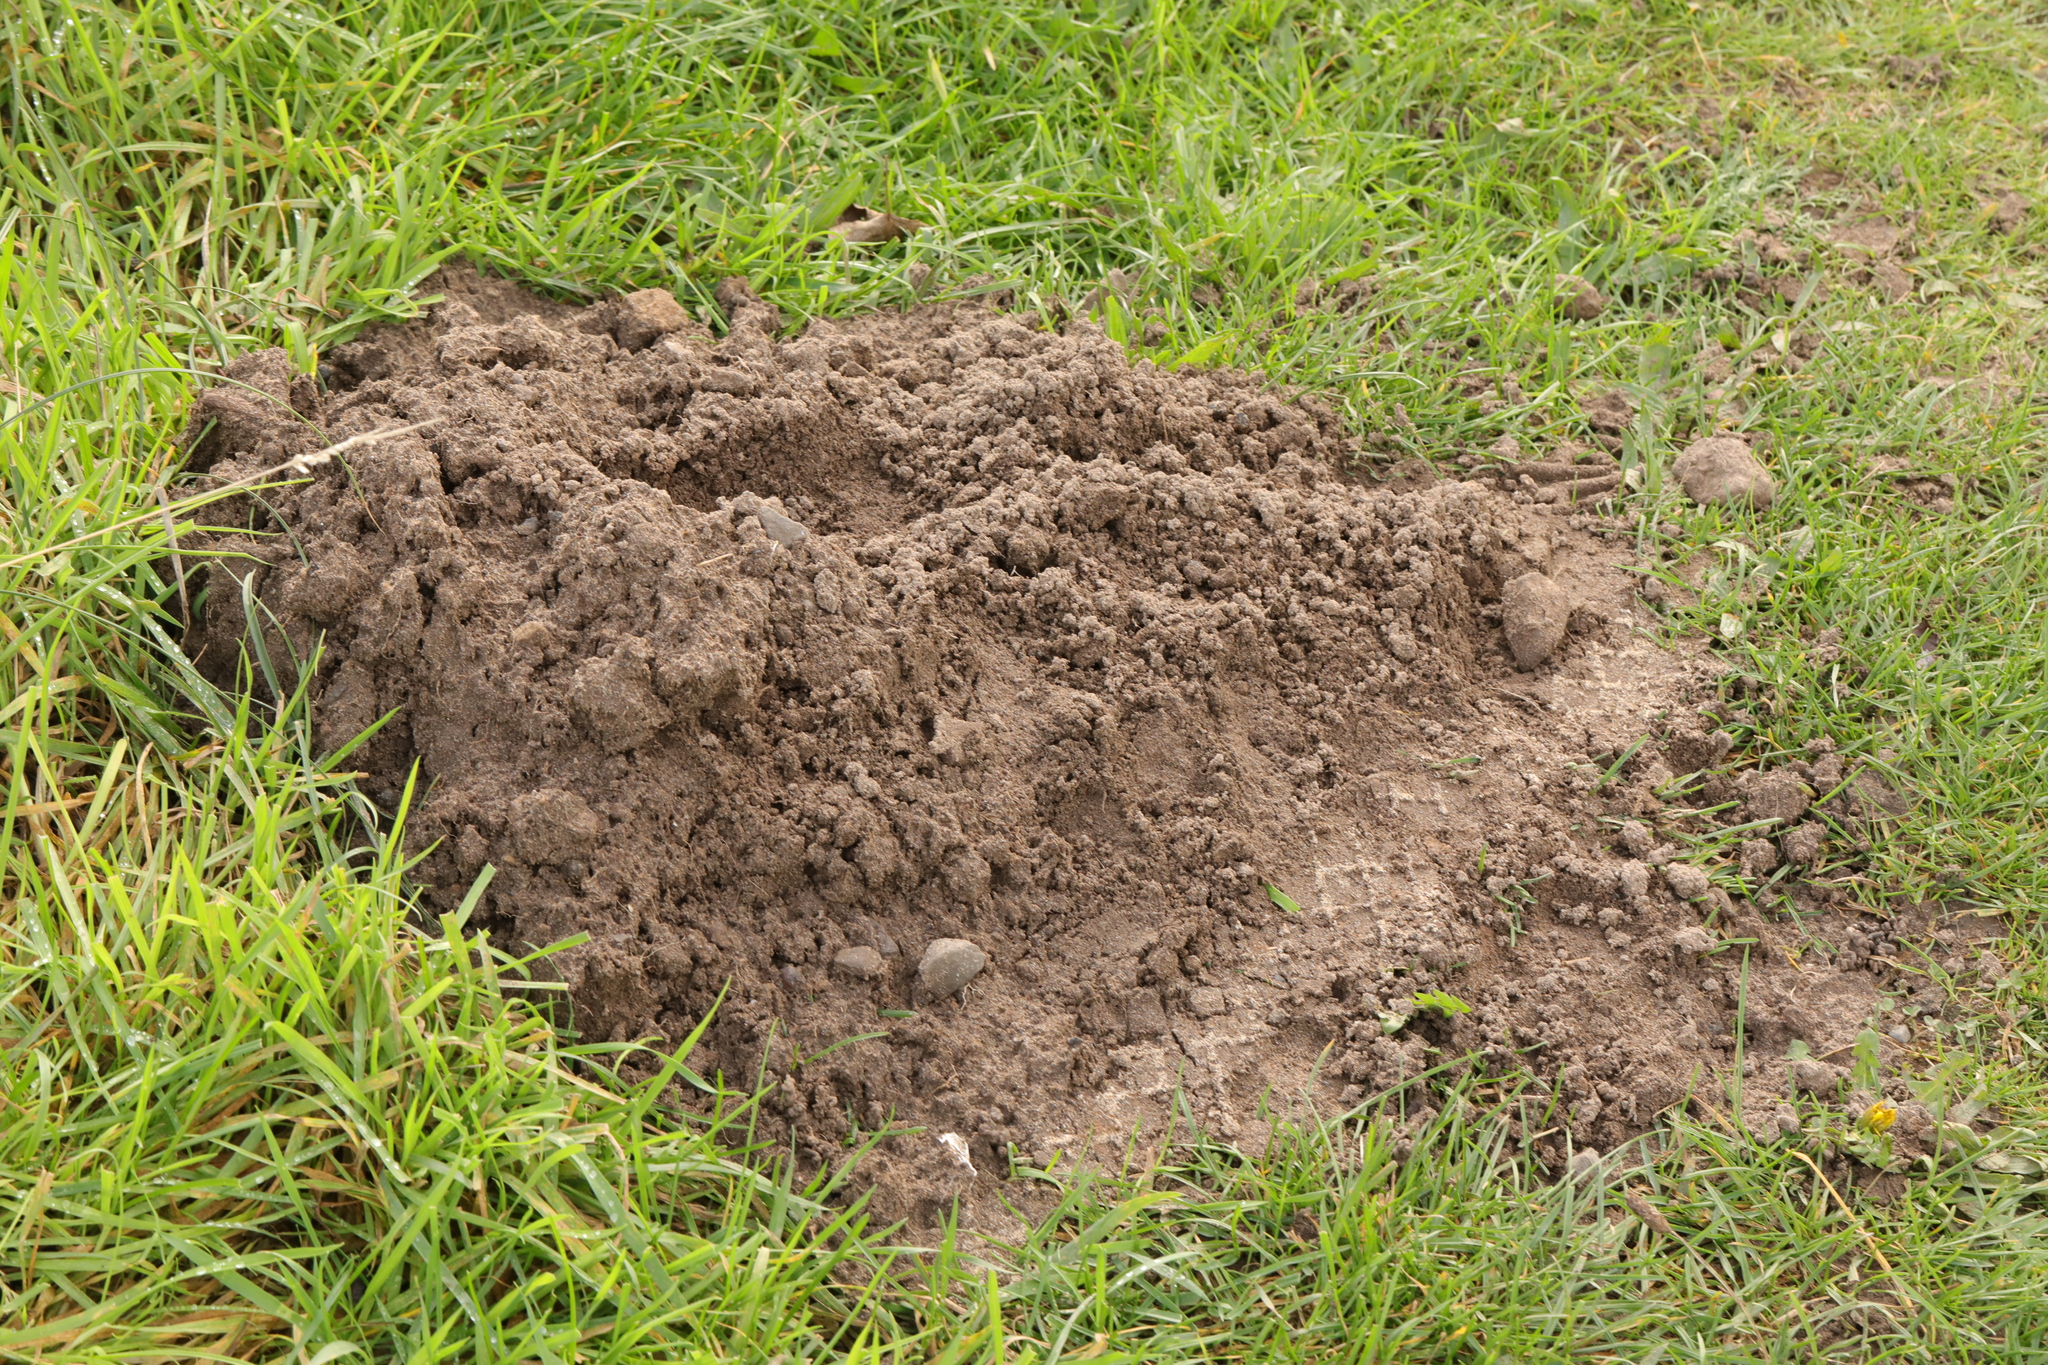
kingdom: Animalia
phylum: Chordata
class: Mammalia
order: Soricomorpha
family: Talpidae
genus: Talpa
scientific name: Talpa europaea
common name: European mole
